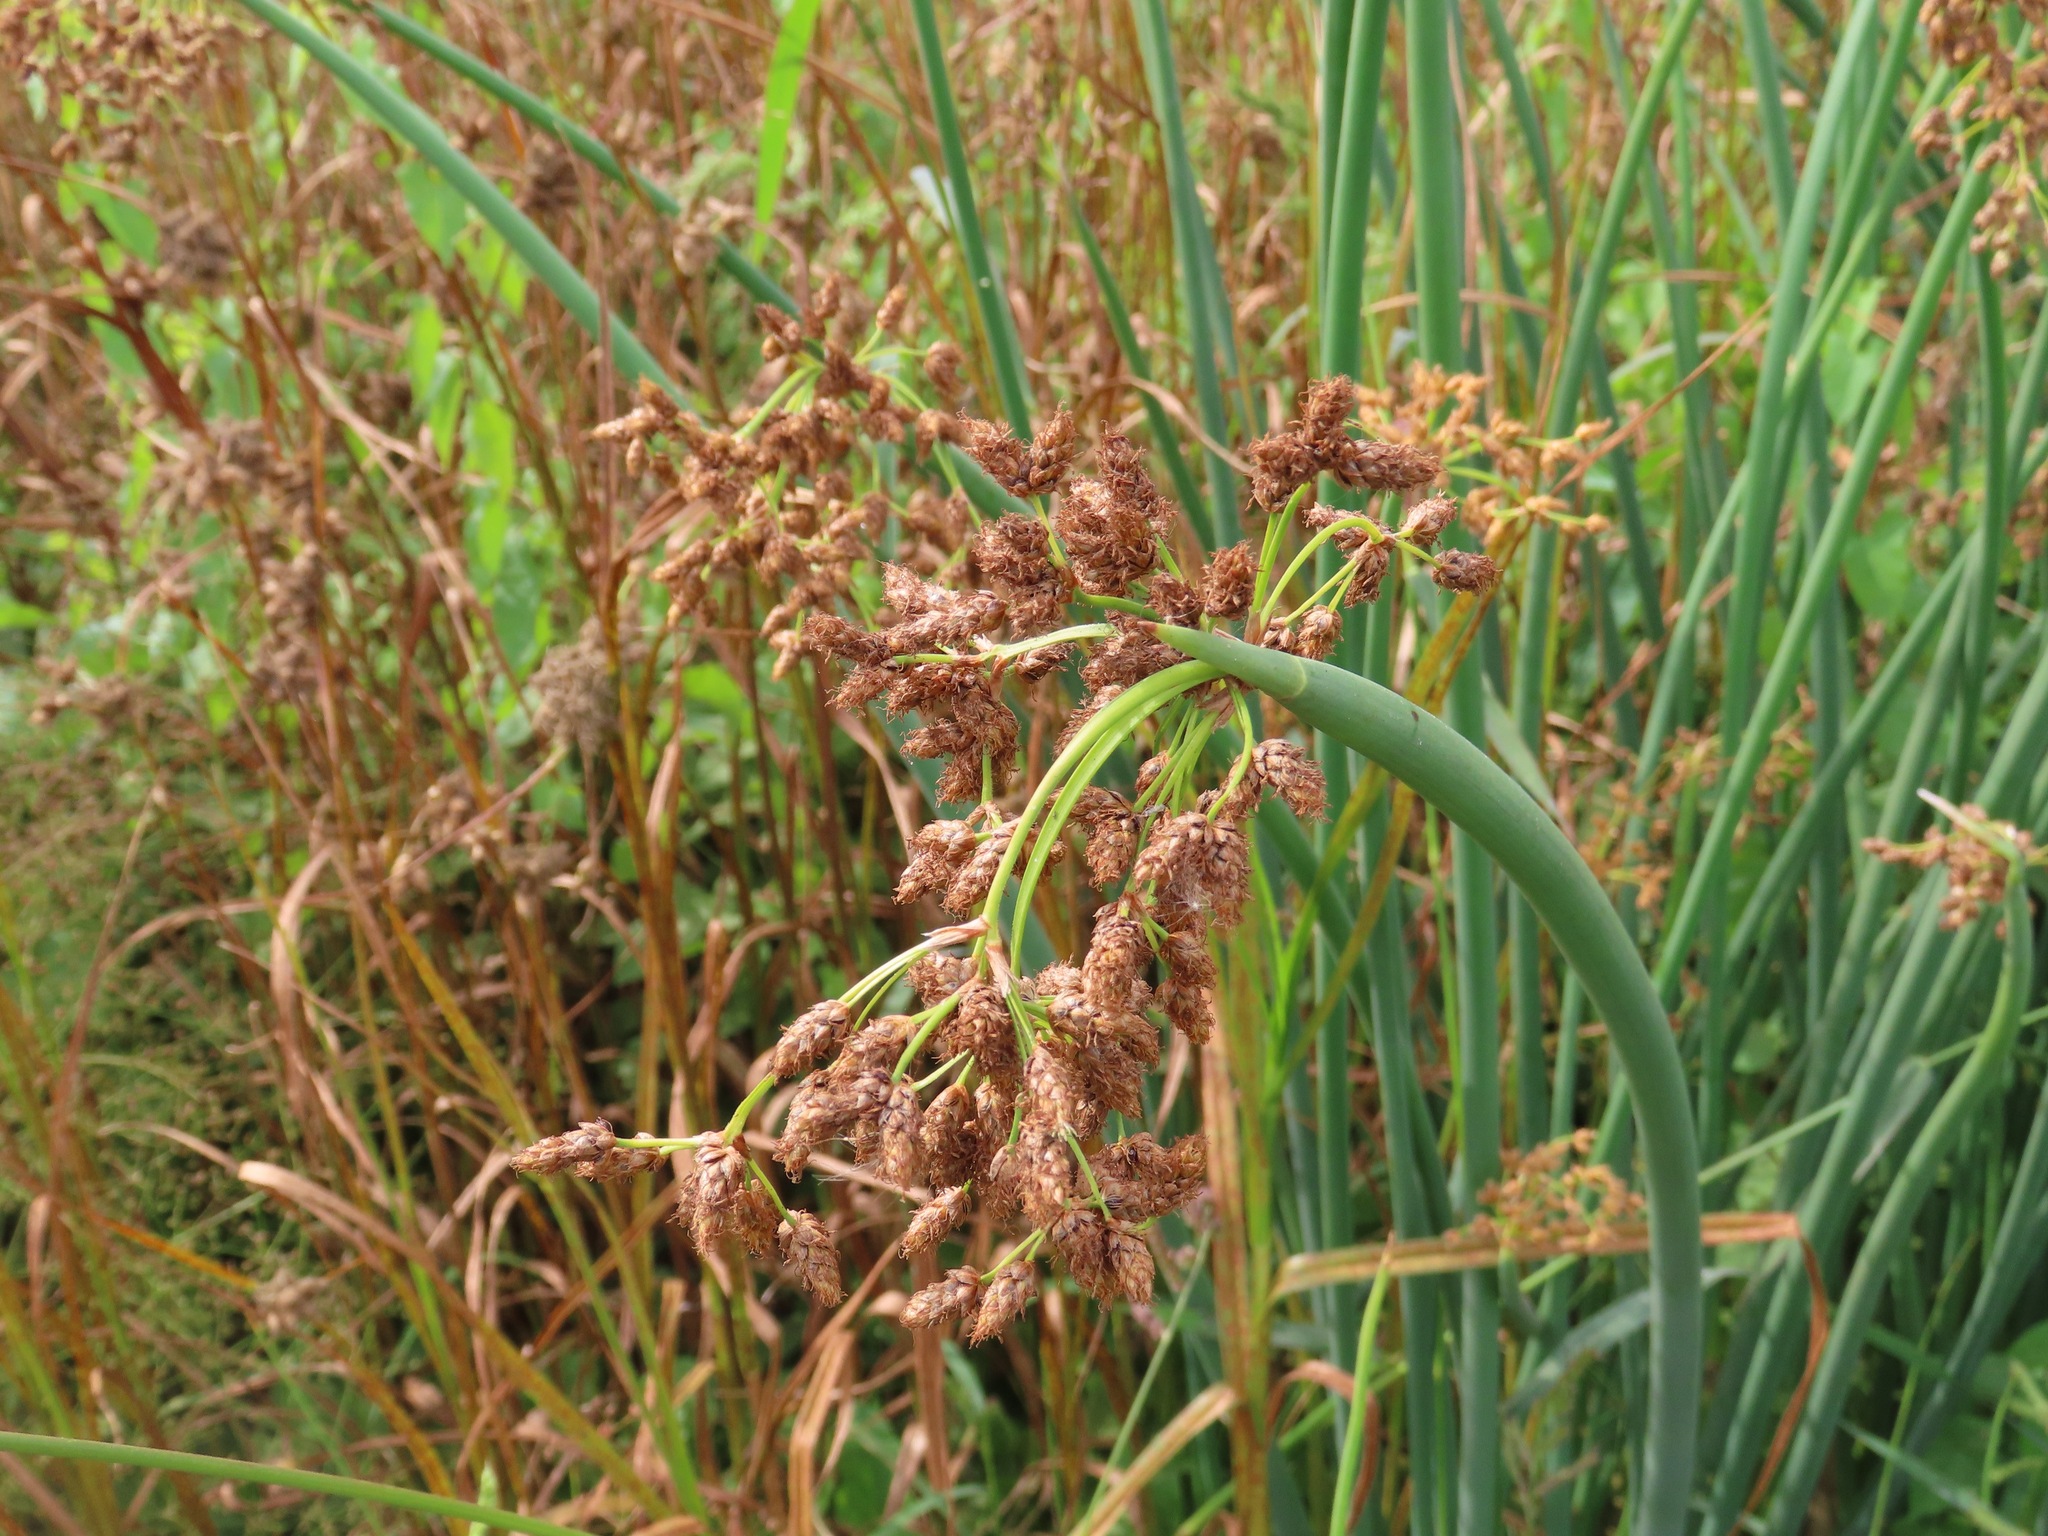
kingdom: Plantae
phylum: Tracheophyta
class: Liliopsida
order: Poales
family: Cyperaceae
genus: Schoenoplectus
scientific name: Schoenoplectus tabernaemontani
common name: Grey club-rush
